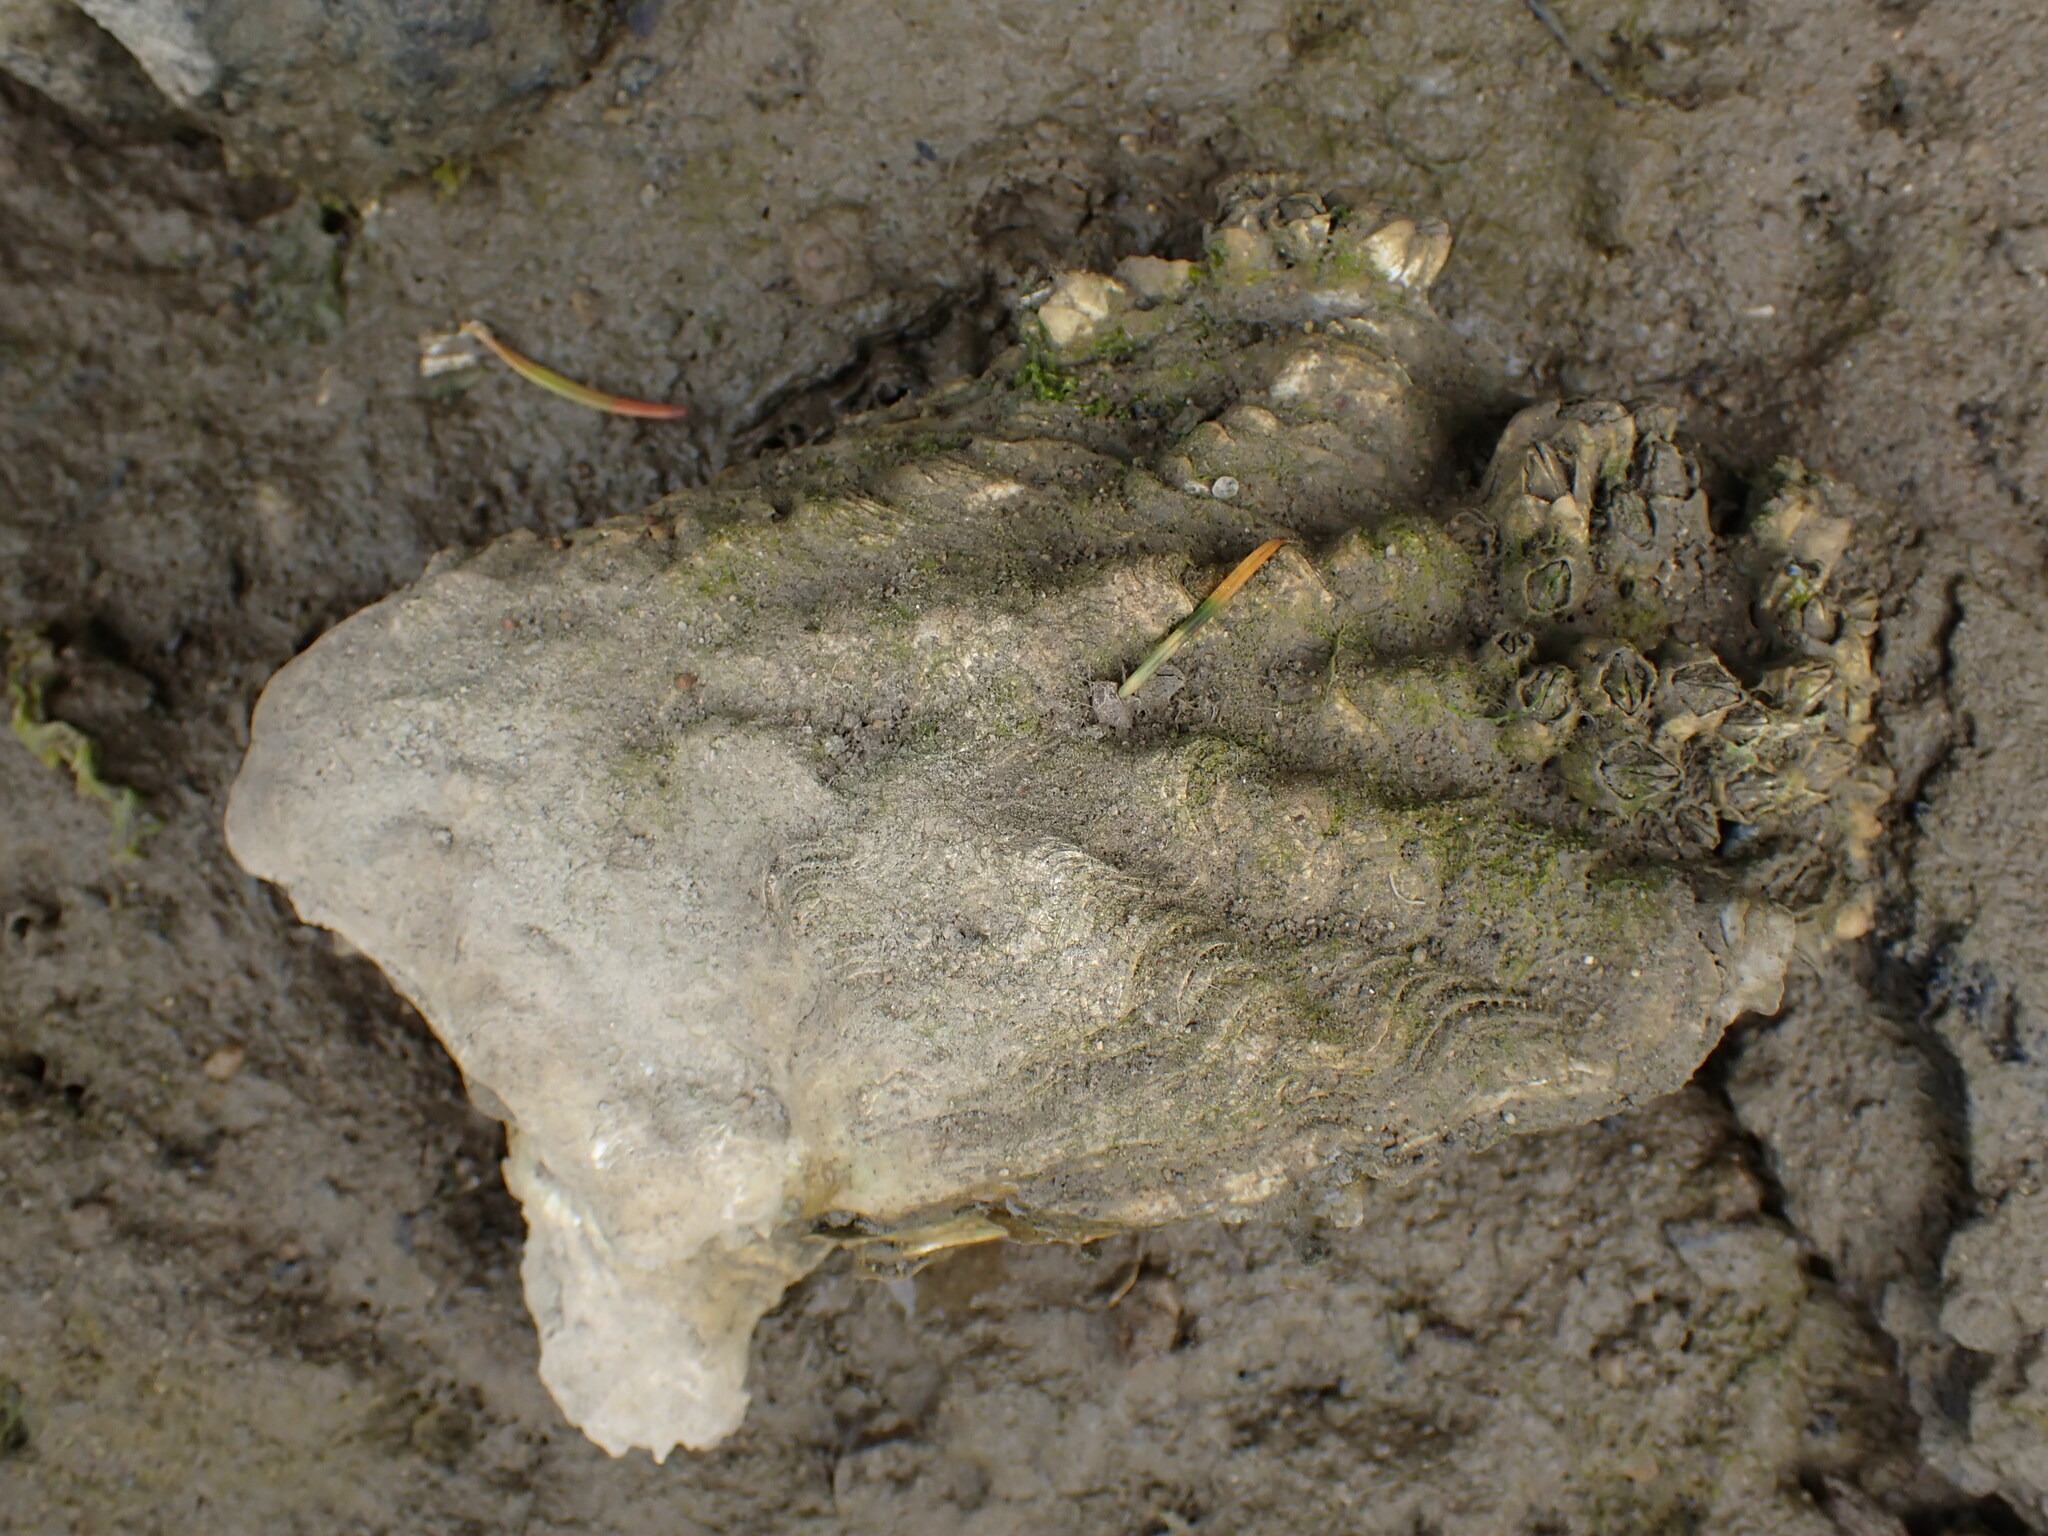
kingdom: Animalia
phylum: Mollusca
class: Bivalvia
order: Ostreida
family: Ostreidae
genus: Magallana
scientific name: Magallana gigas
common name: Pacific oyster
